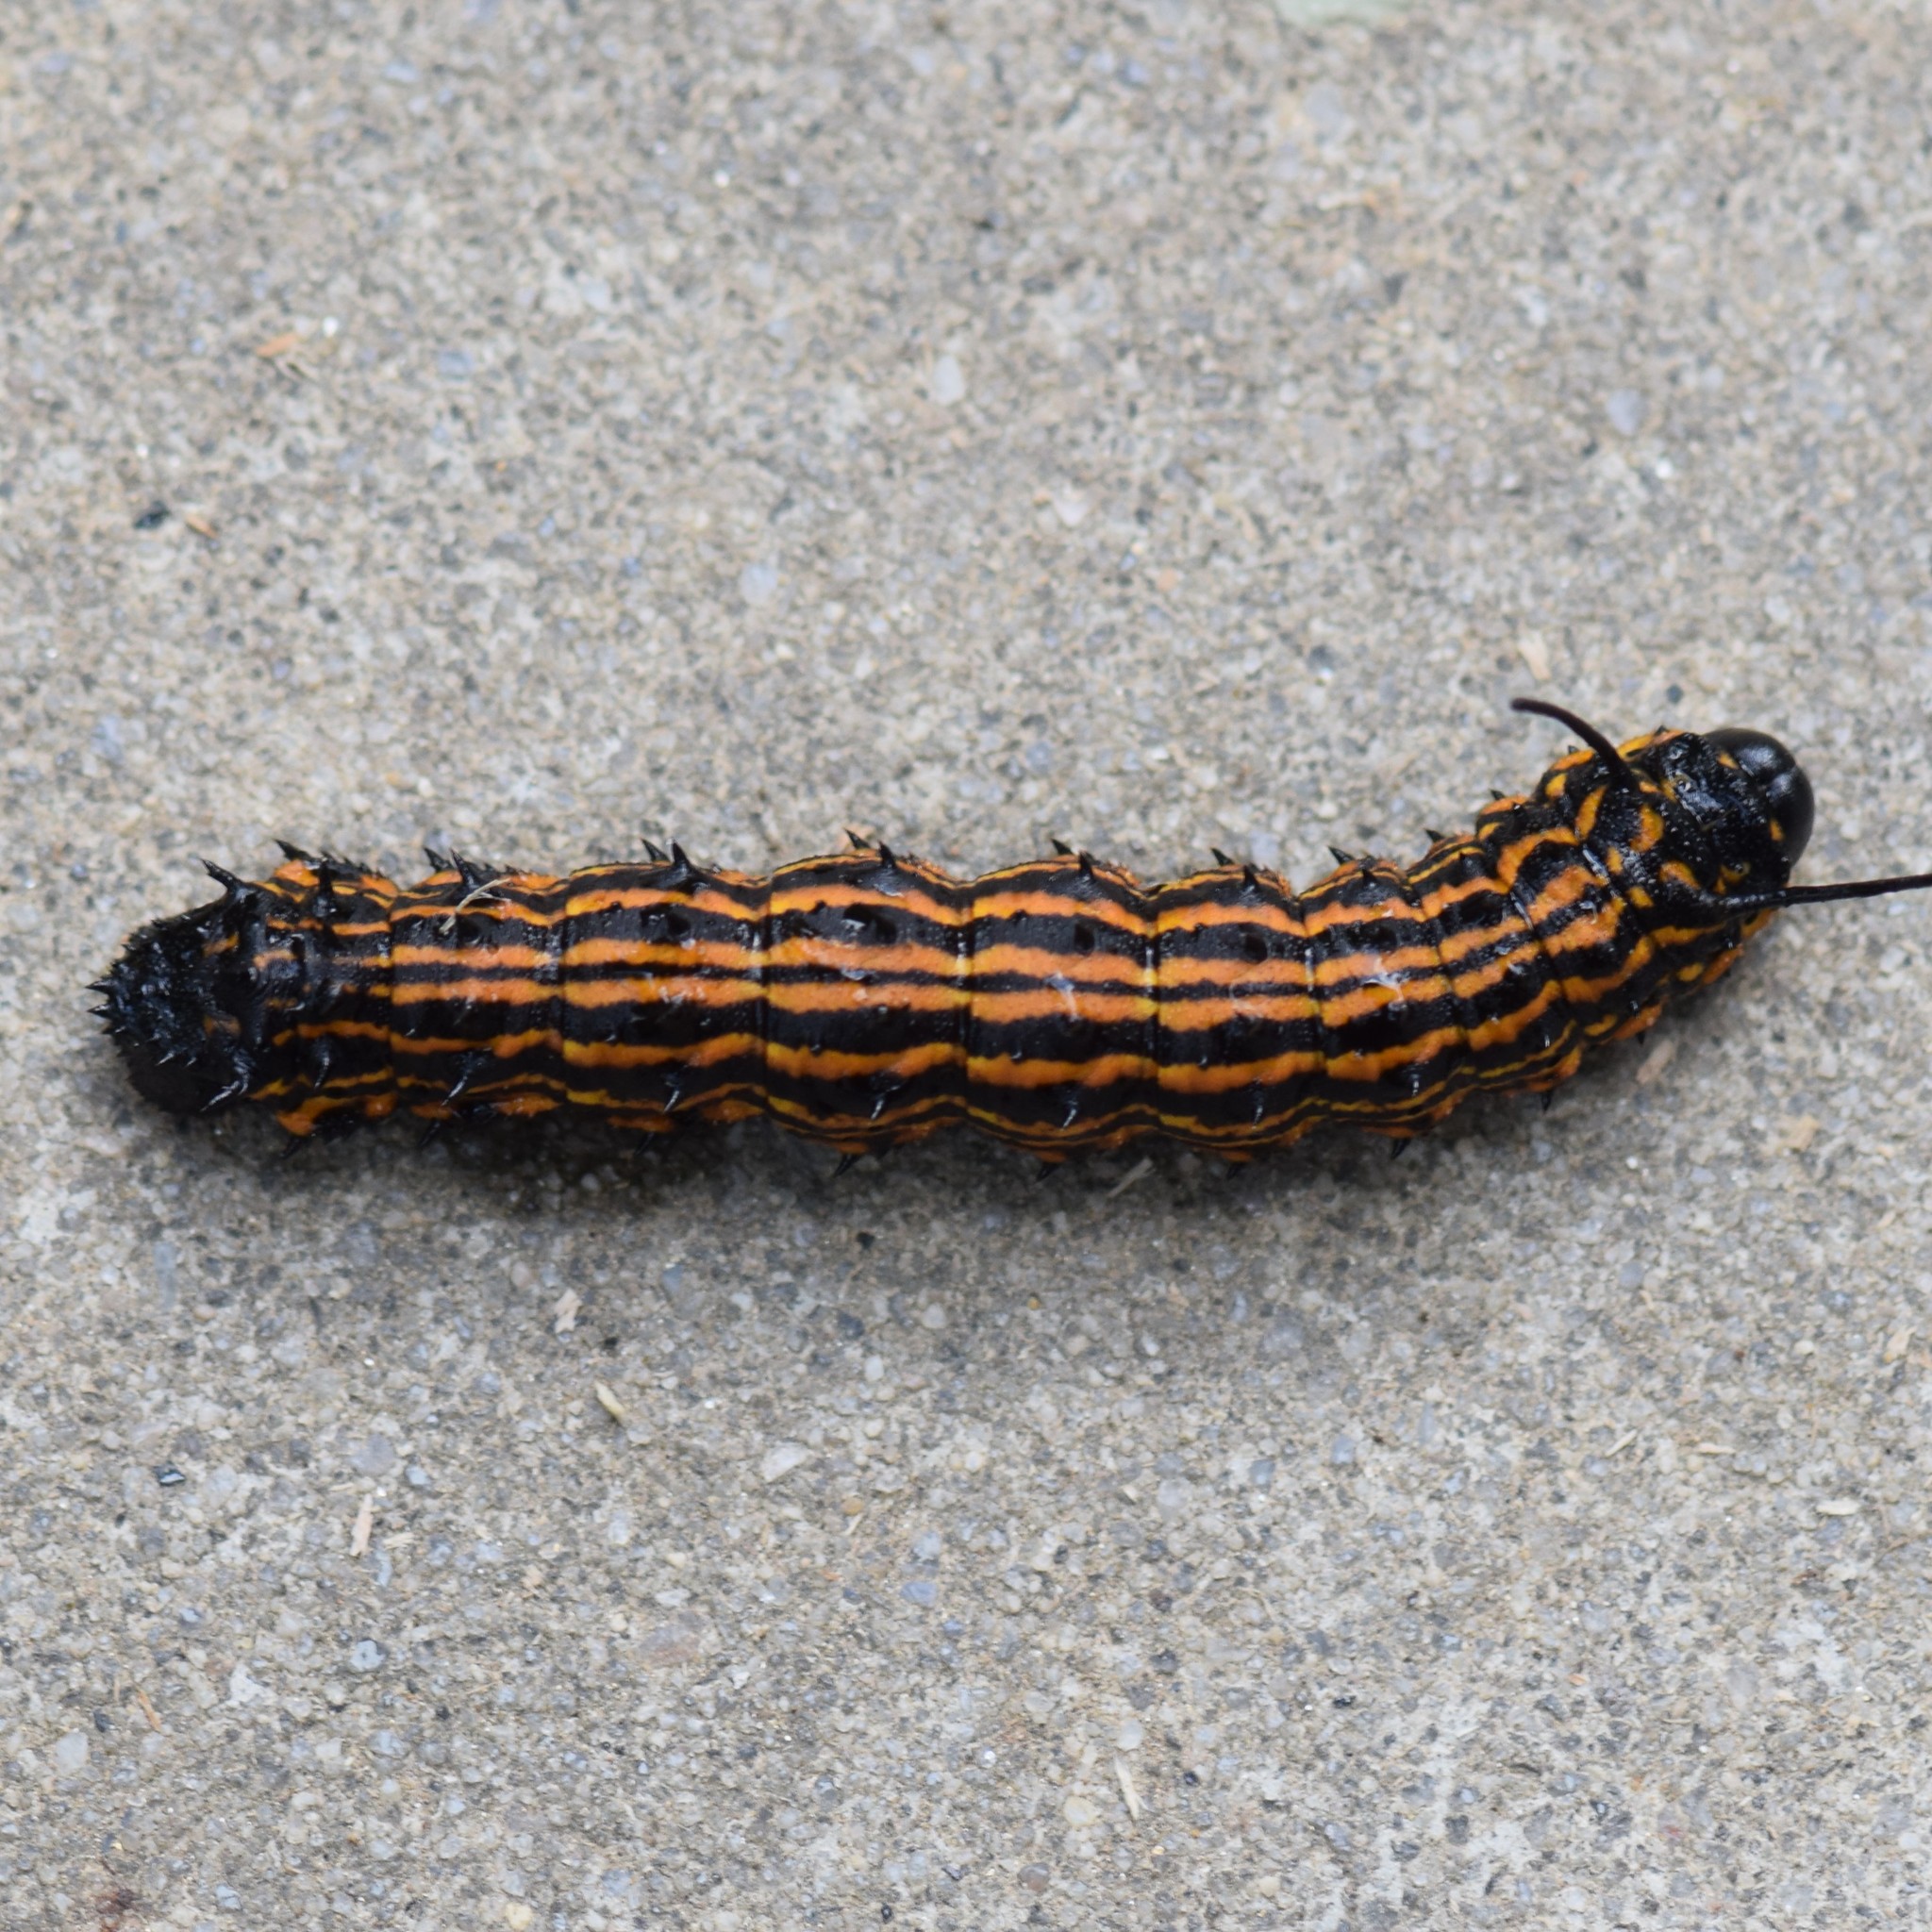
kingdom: Animalia
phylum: Arthropoda
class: Insecta
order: Lepidoptera
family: Saturniidae
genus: Anisota
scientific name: Anisota senatoria
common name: Orange-striped oakworm moth
